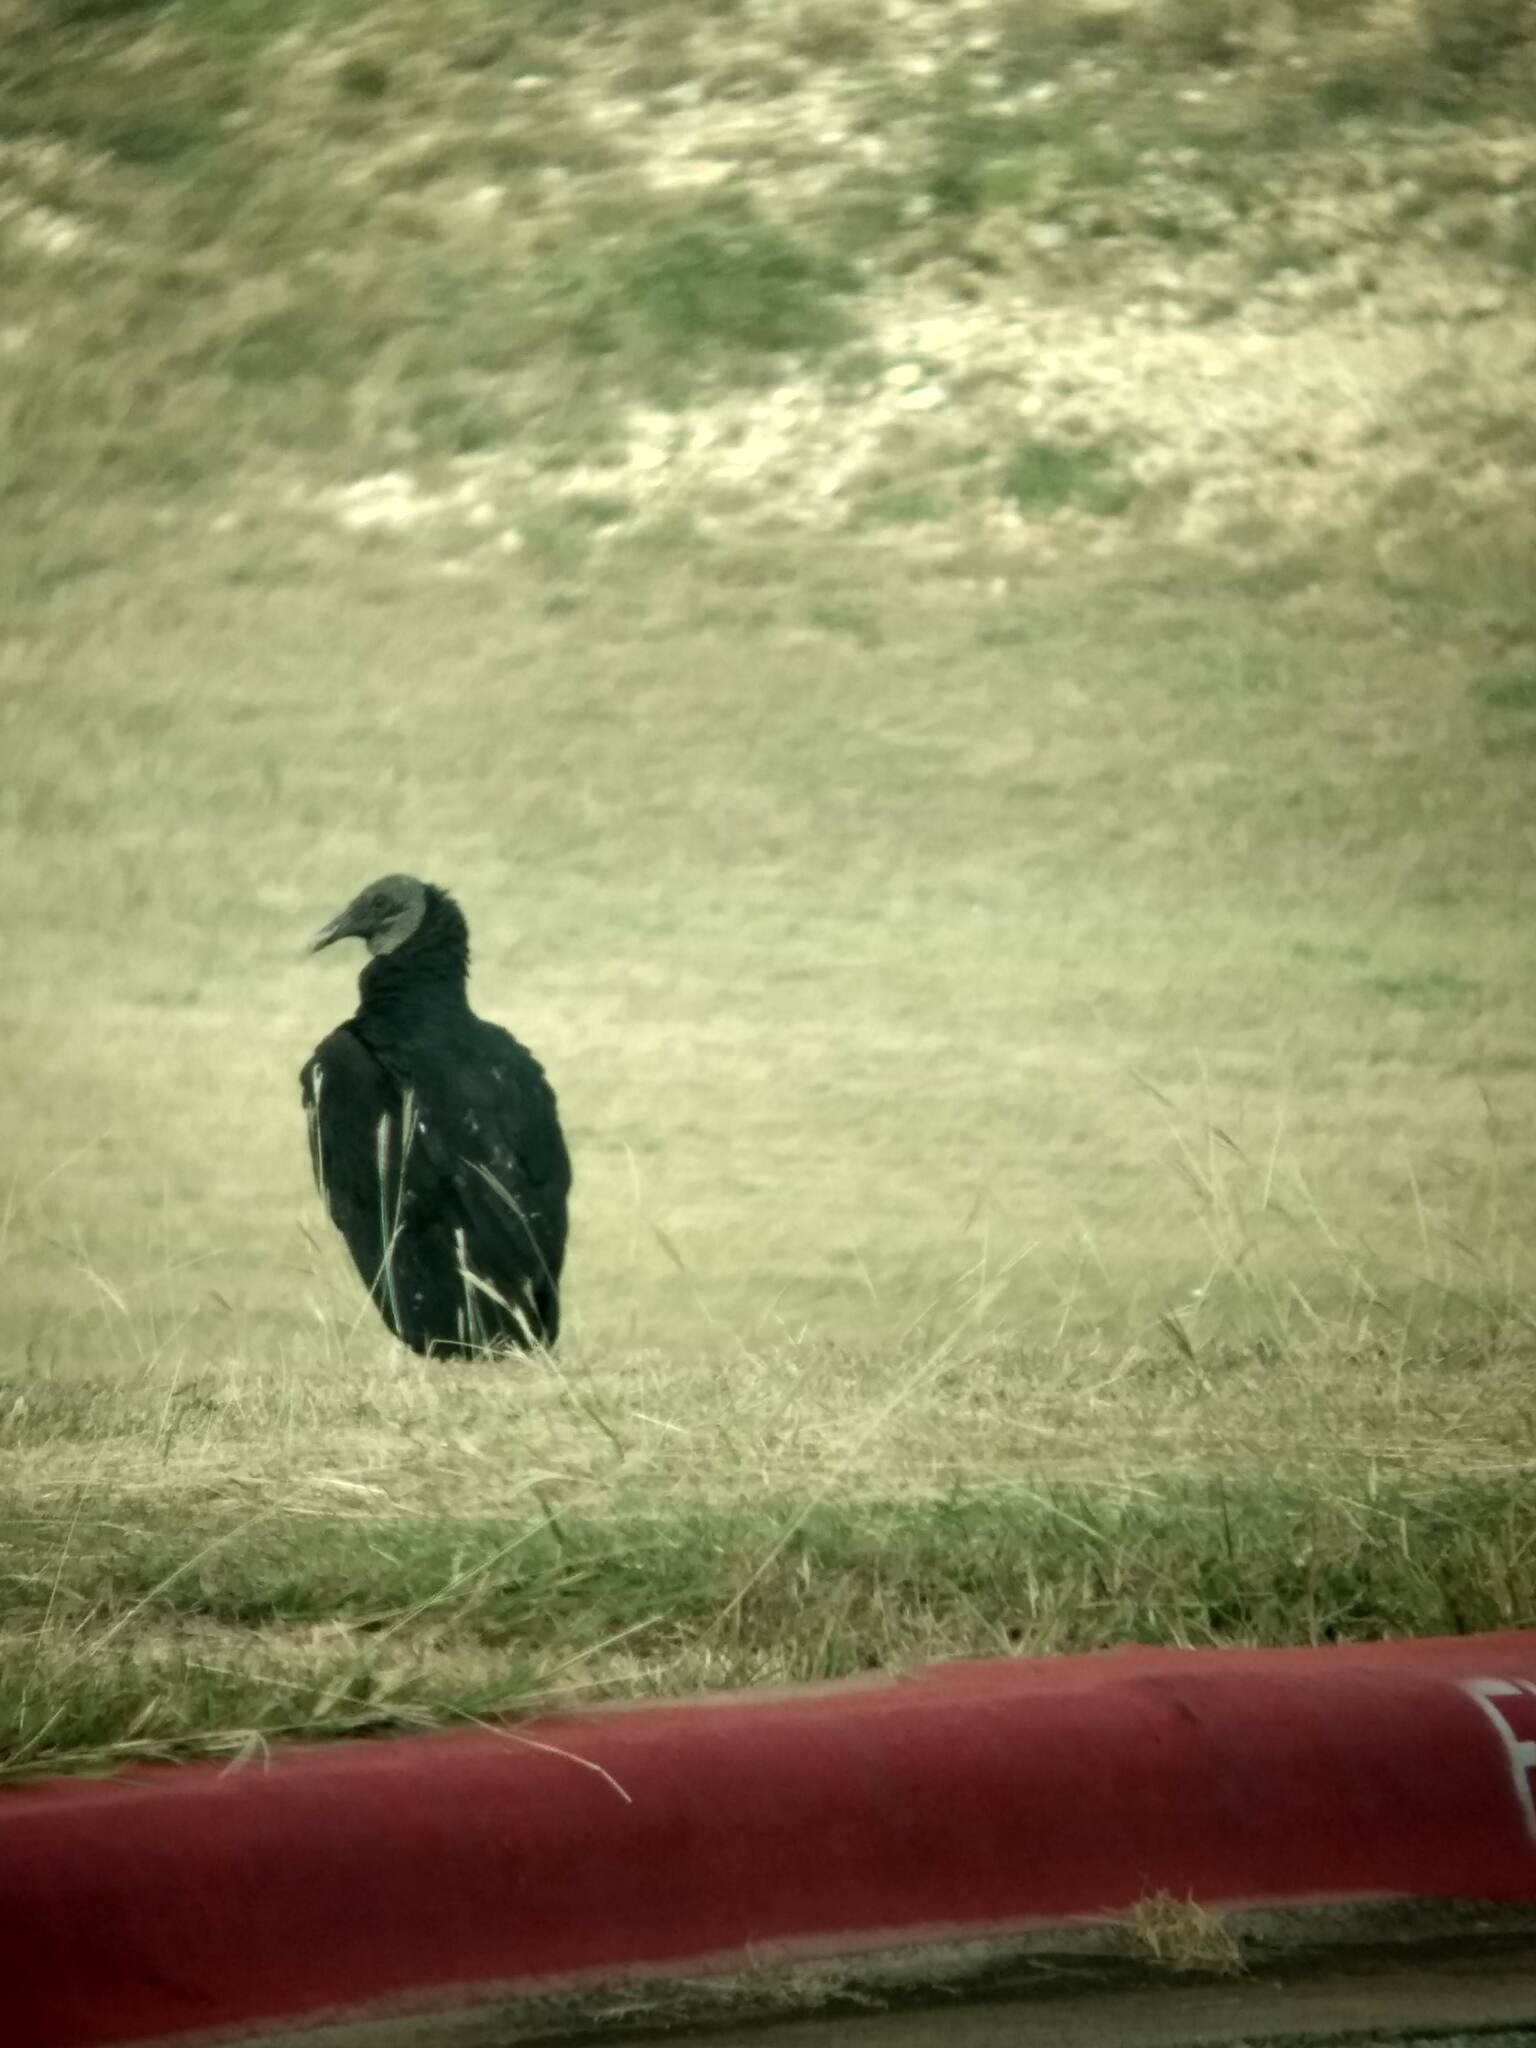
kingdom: Animalia
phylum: Chordata
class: Aves
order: Accipitriformes
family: Cathartidae
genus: Coragyps
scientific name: Coragyps atratus
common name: Black vulture
